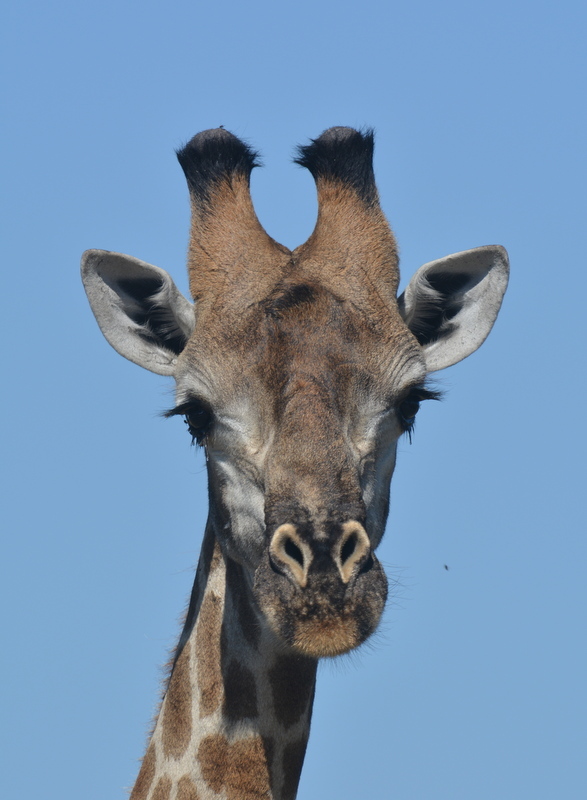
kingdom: Animalia
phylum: Chordata
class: Mammalia
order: Artiodactyla
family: Giraffidae
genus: Giraffa
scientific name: Giraffa giraffa
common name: Southern giraffe
